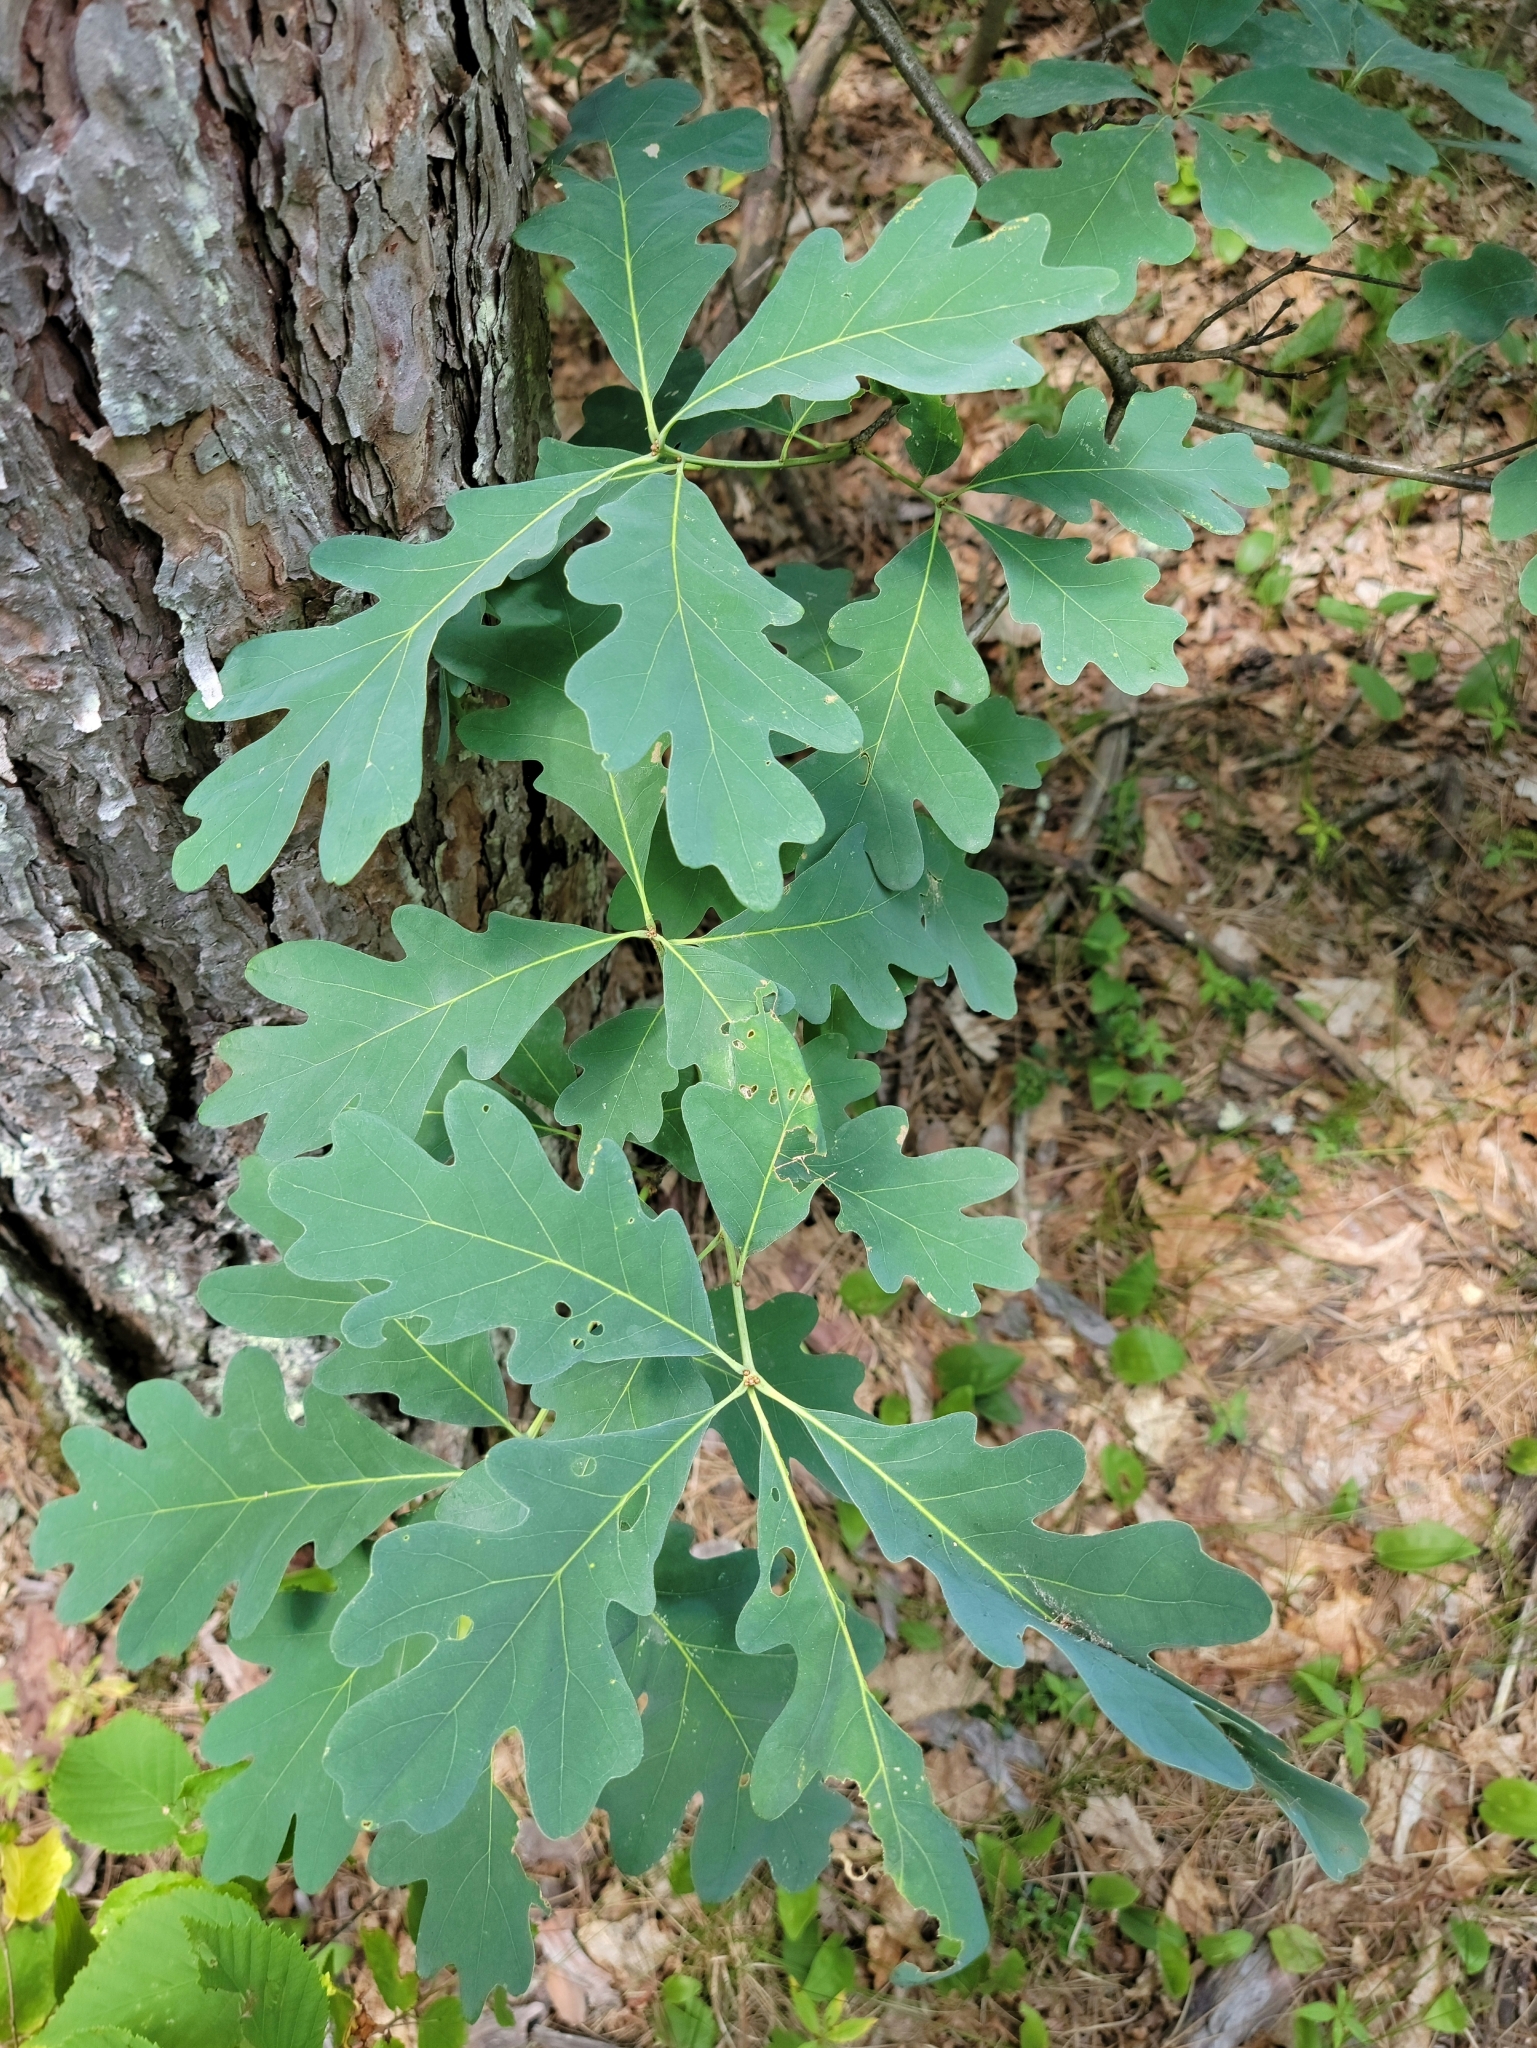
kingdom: Plantae
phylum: Tracheophyta
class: Magnoliopsida
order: Fagales
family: Fagaceae
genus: Quercus
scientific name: Quercus alba
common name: White oak
